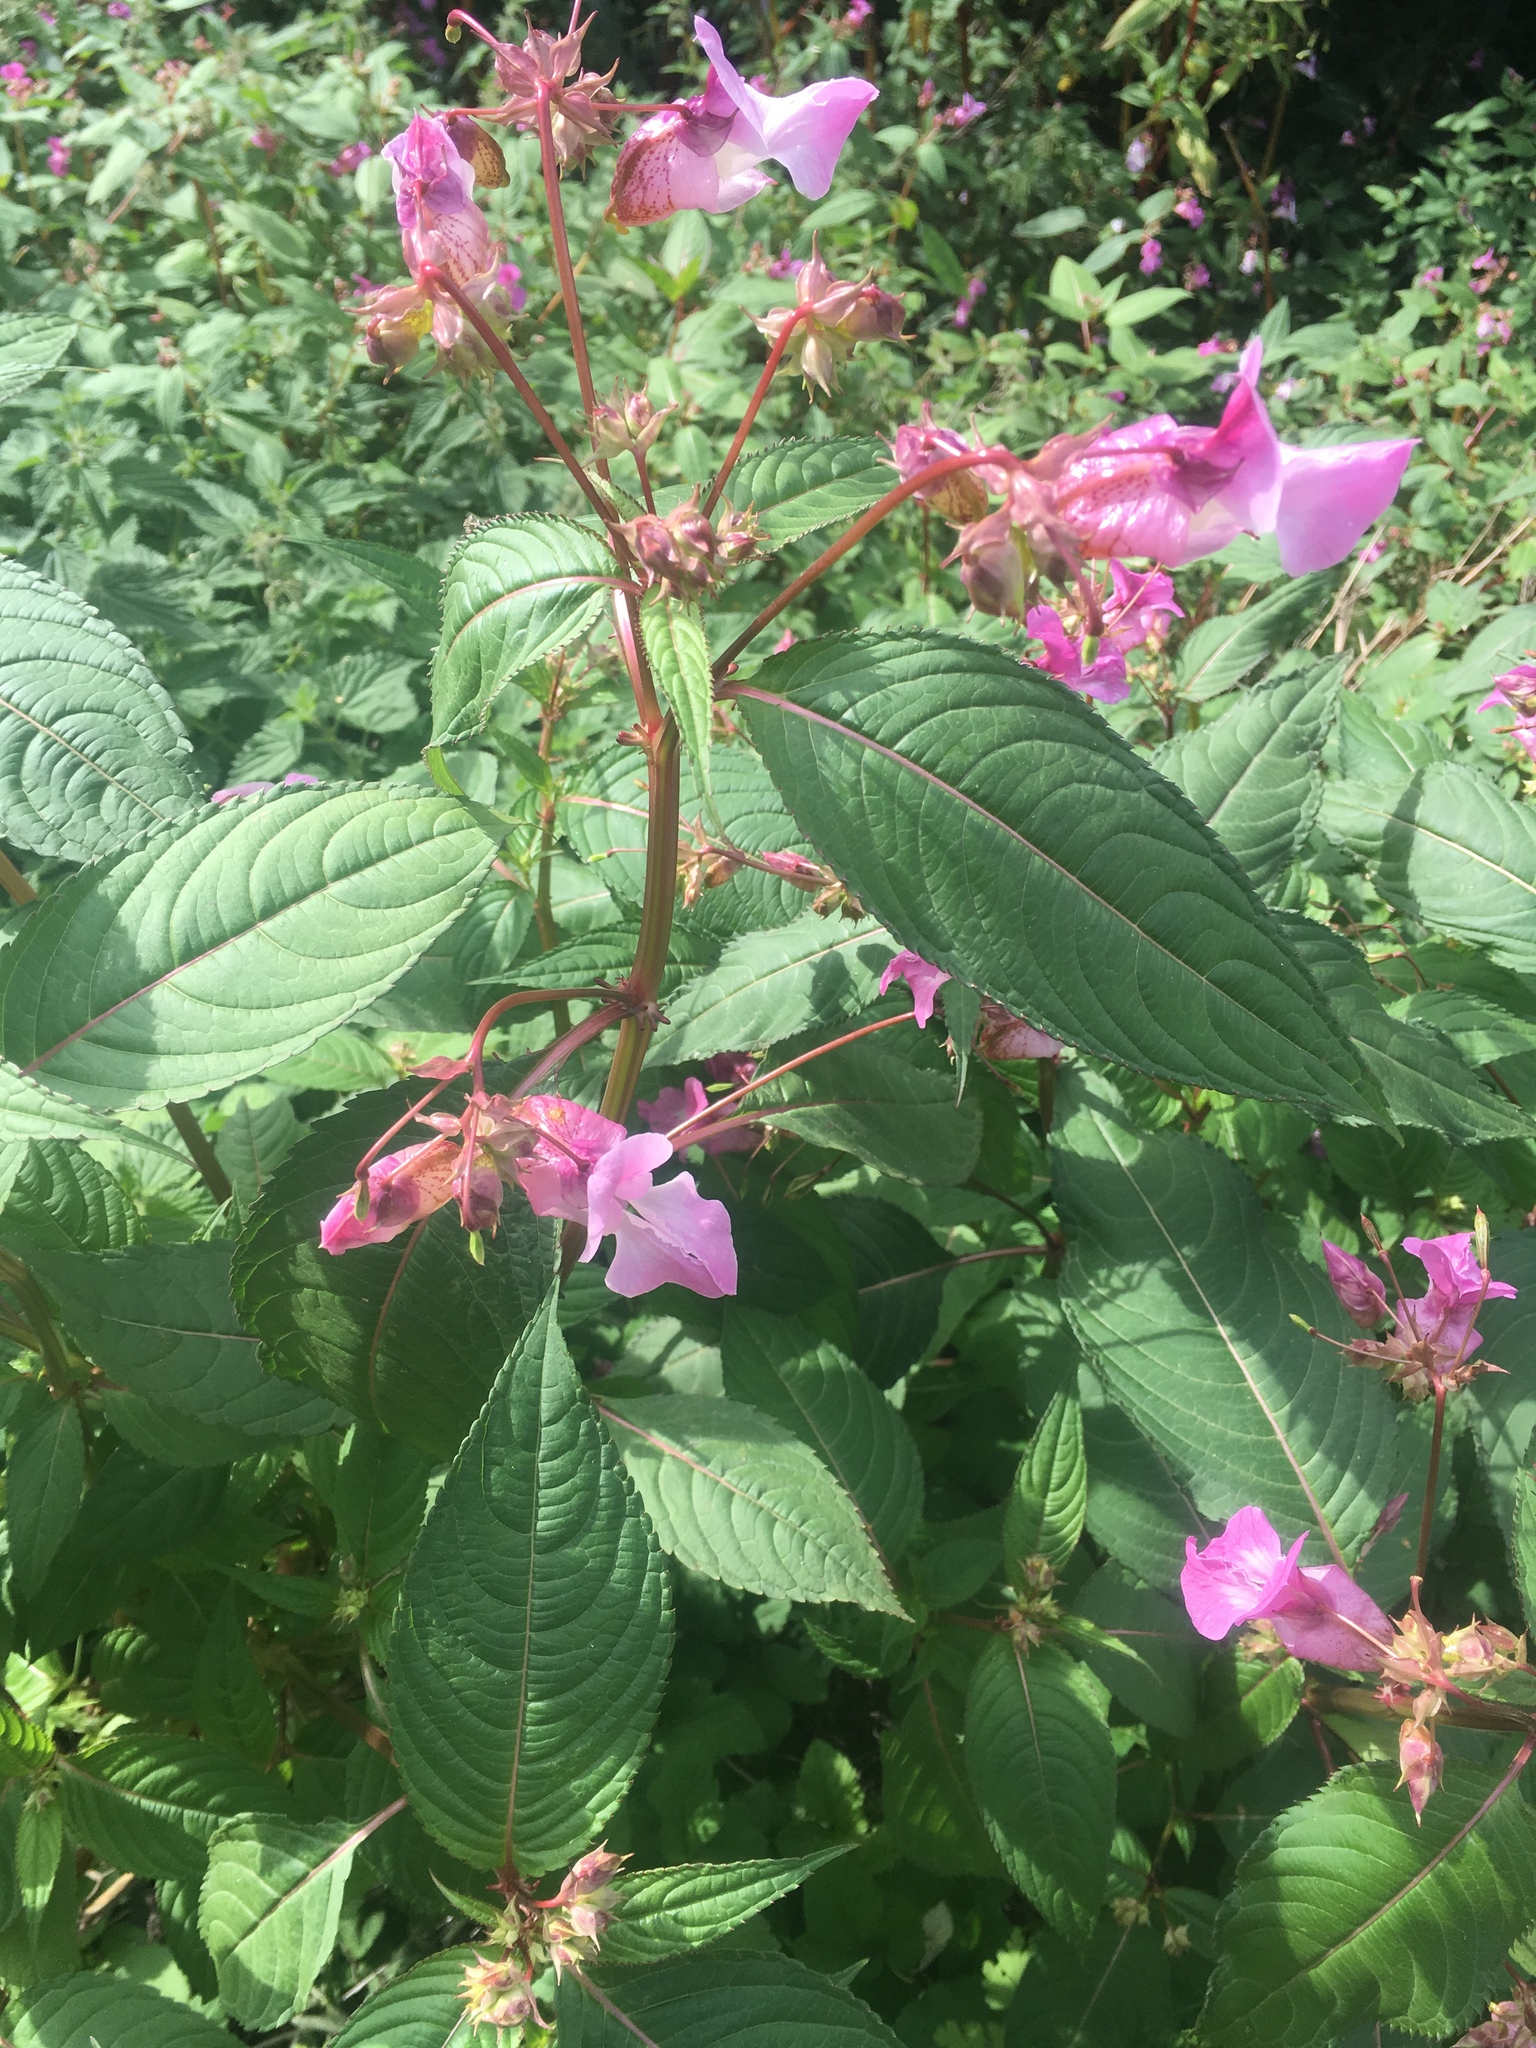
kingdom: Plantae
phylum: Tracheophyta
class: Magnoliopsida
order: Ericales
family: Balsaminaceae
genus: Impatiens
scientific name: Impatiens glandulifera
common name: Himalayan balsam
